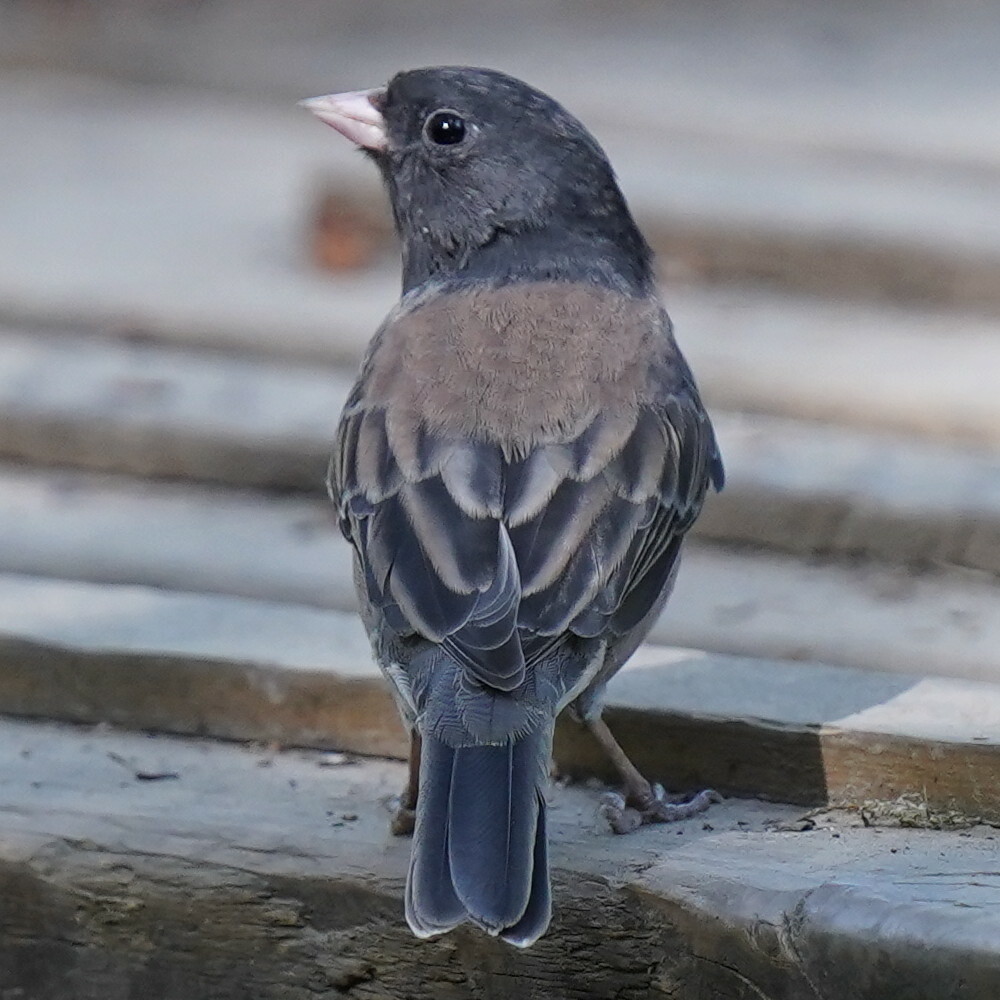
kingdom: Animalia
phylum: Chordata
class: Aves
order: Passeriformes
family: Passerellidae
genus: Junco
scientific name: Junco hyemalis
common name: Dark-eyed junco
